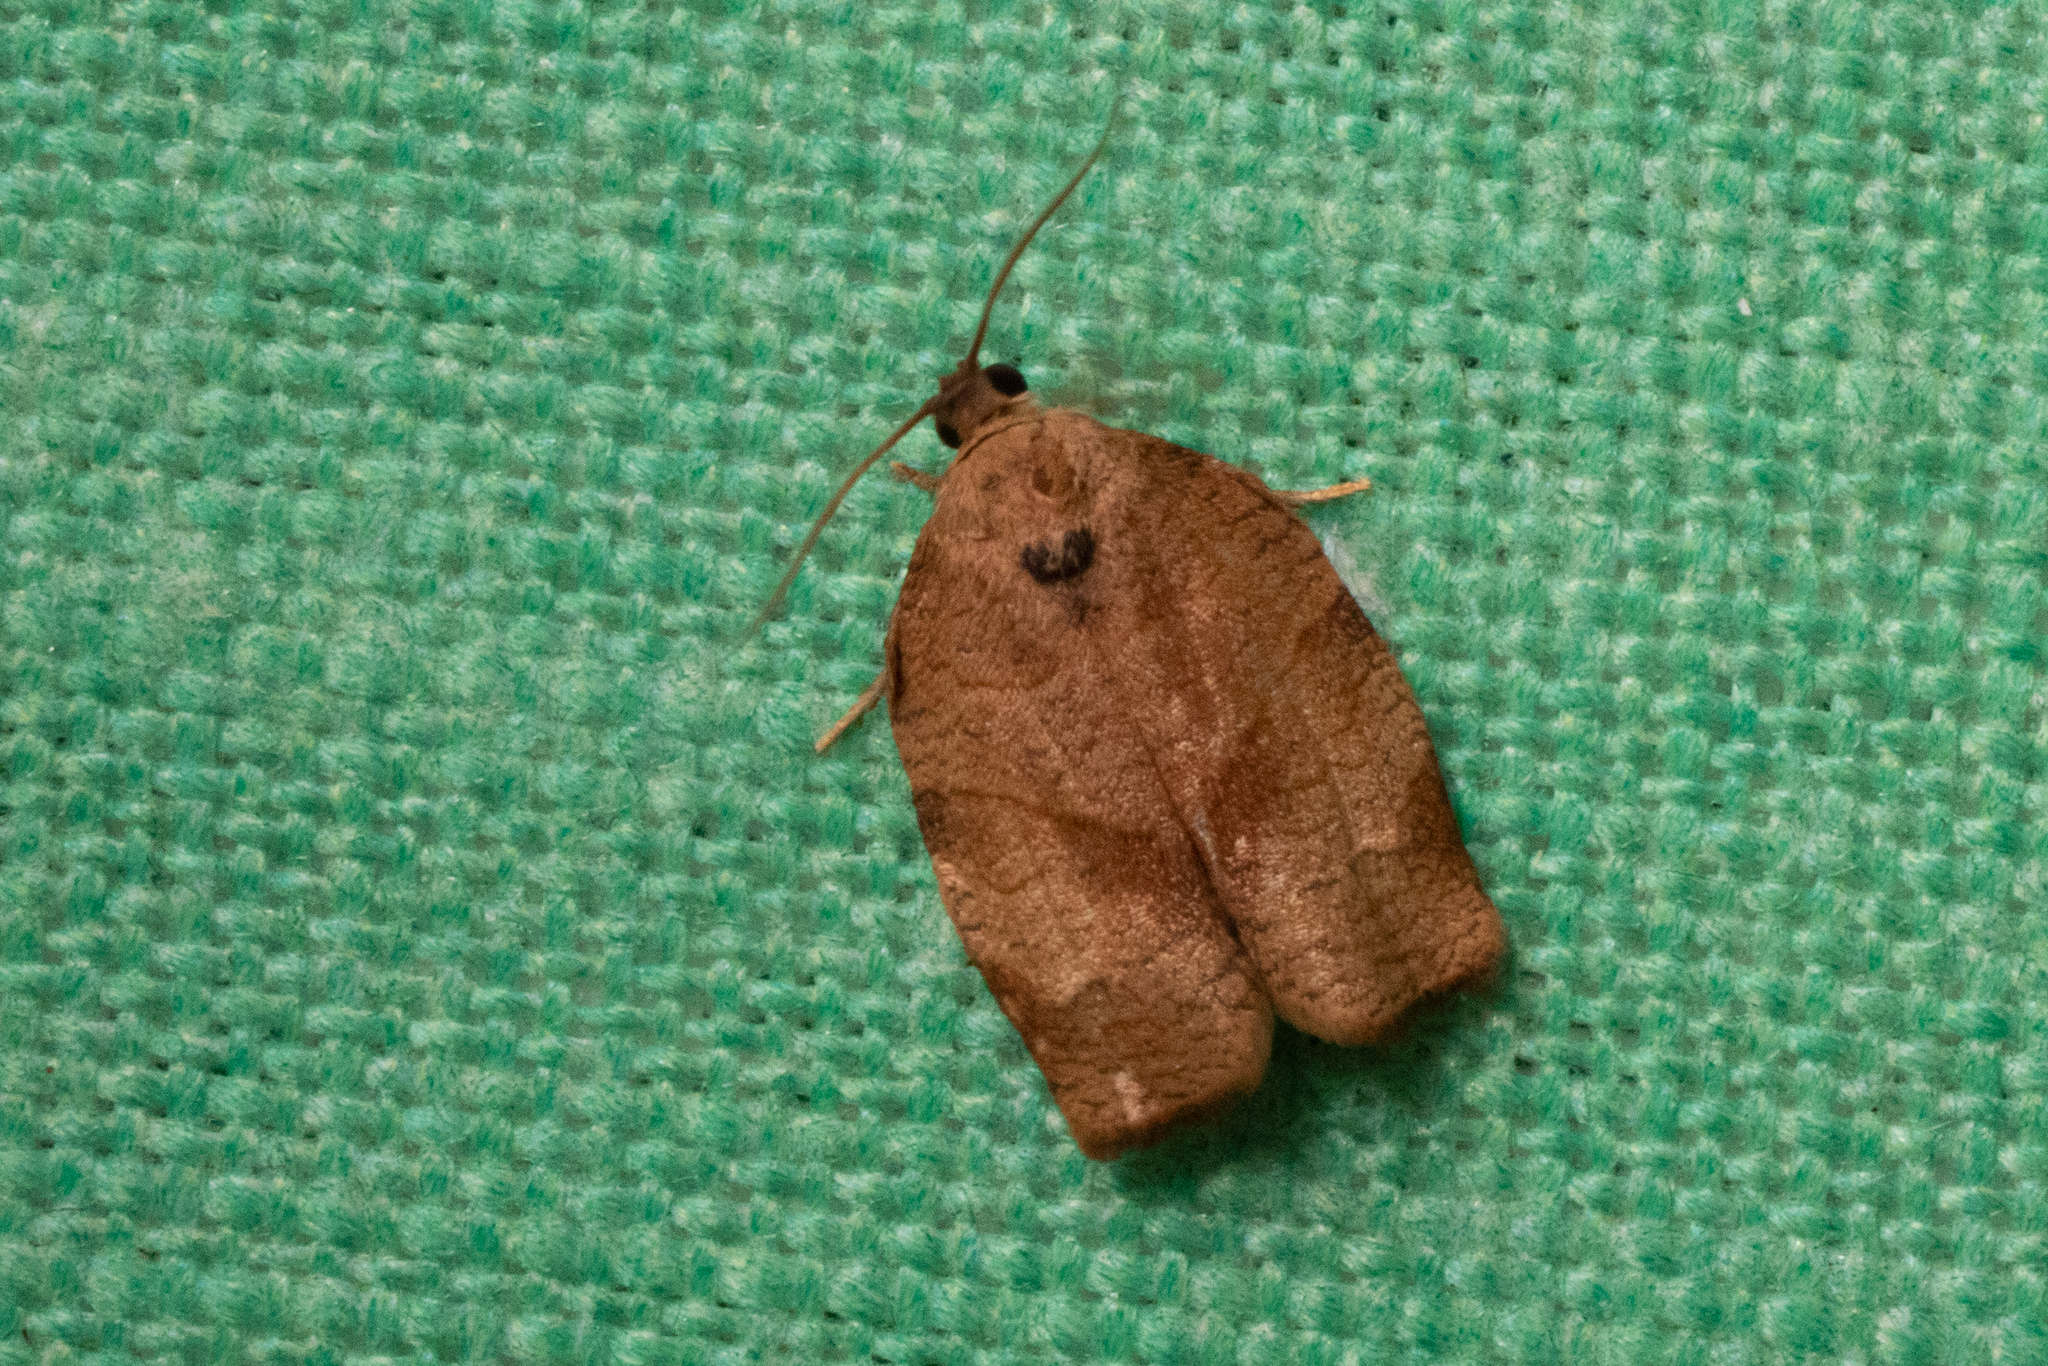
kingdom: Animalia
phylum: Arthropoda
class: Insecta
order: Lepidoptera
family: Tortricidae
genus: Choristoneura
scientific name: Choristoneura rosaceana
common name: Oblique-banded leafroller moth
